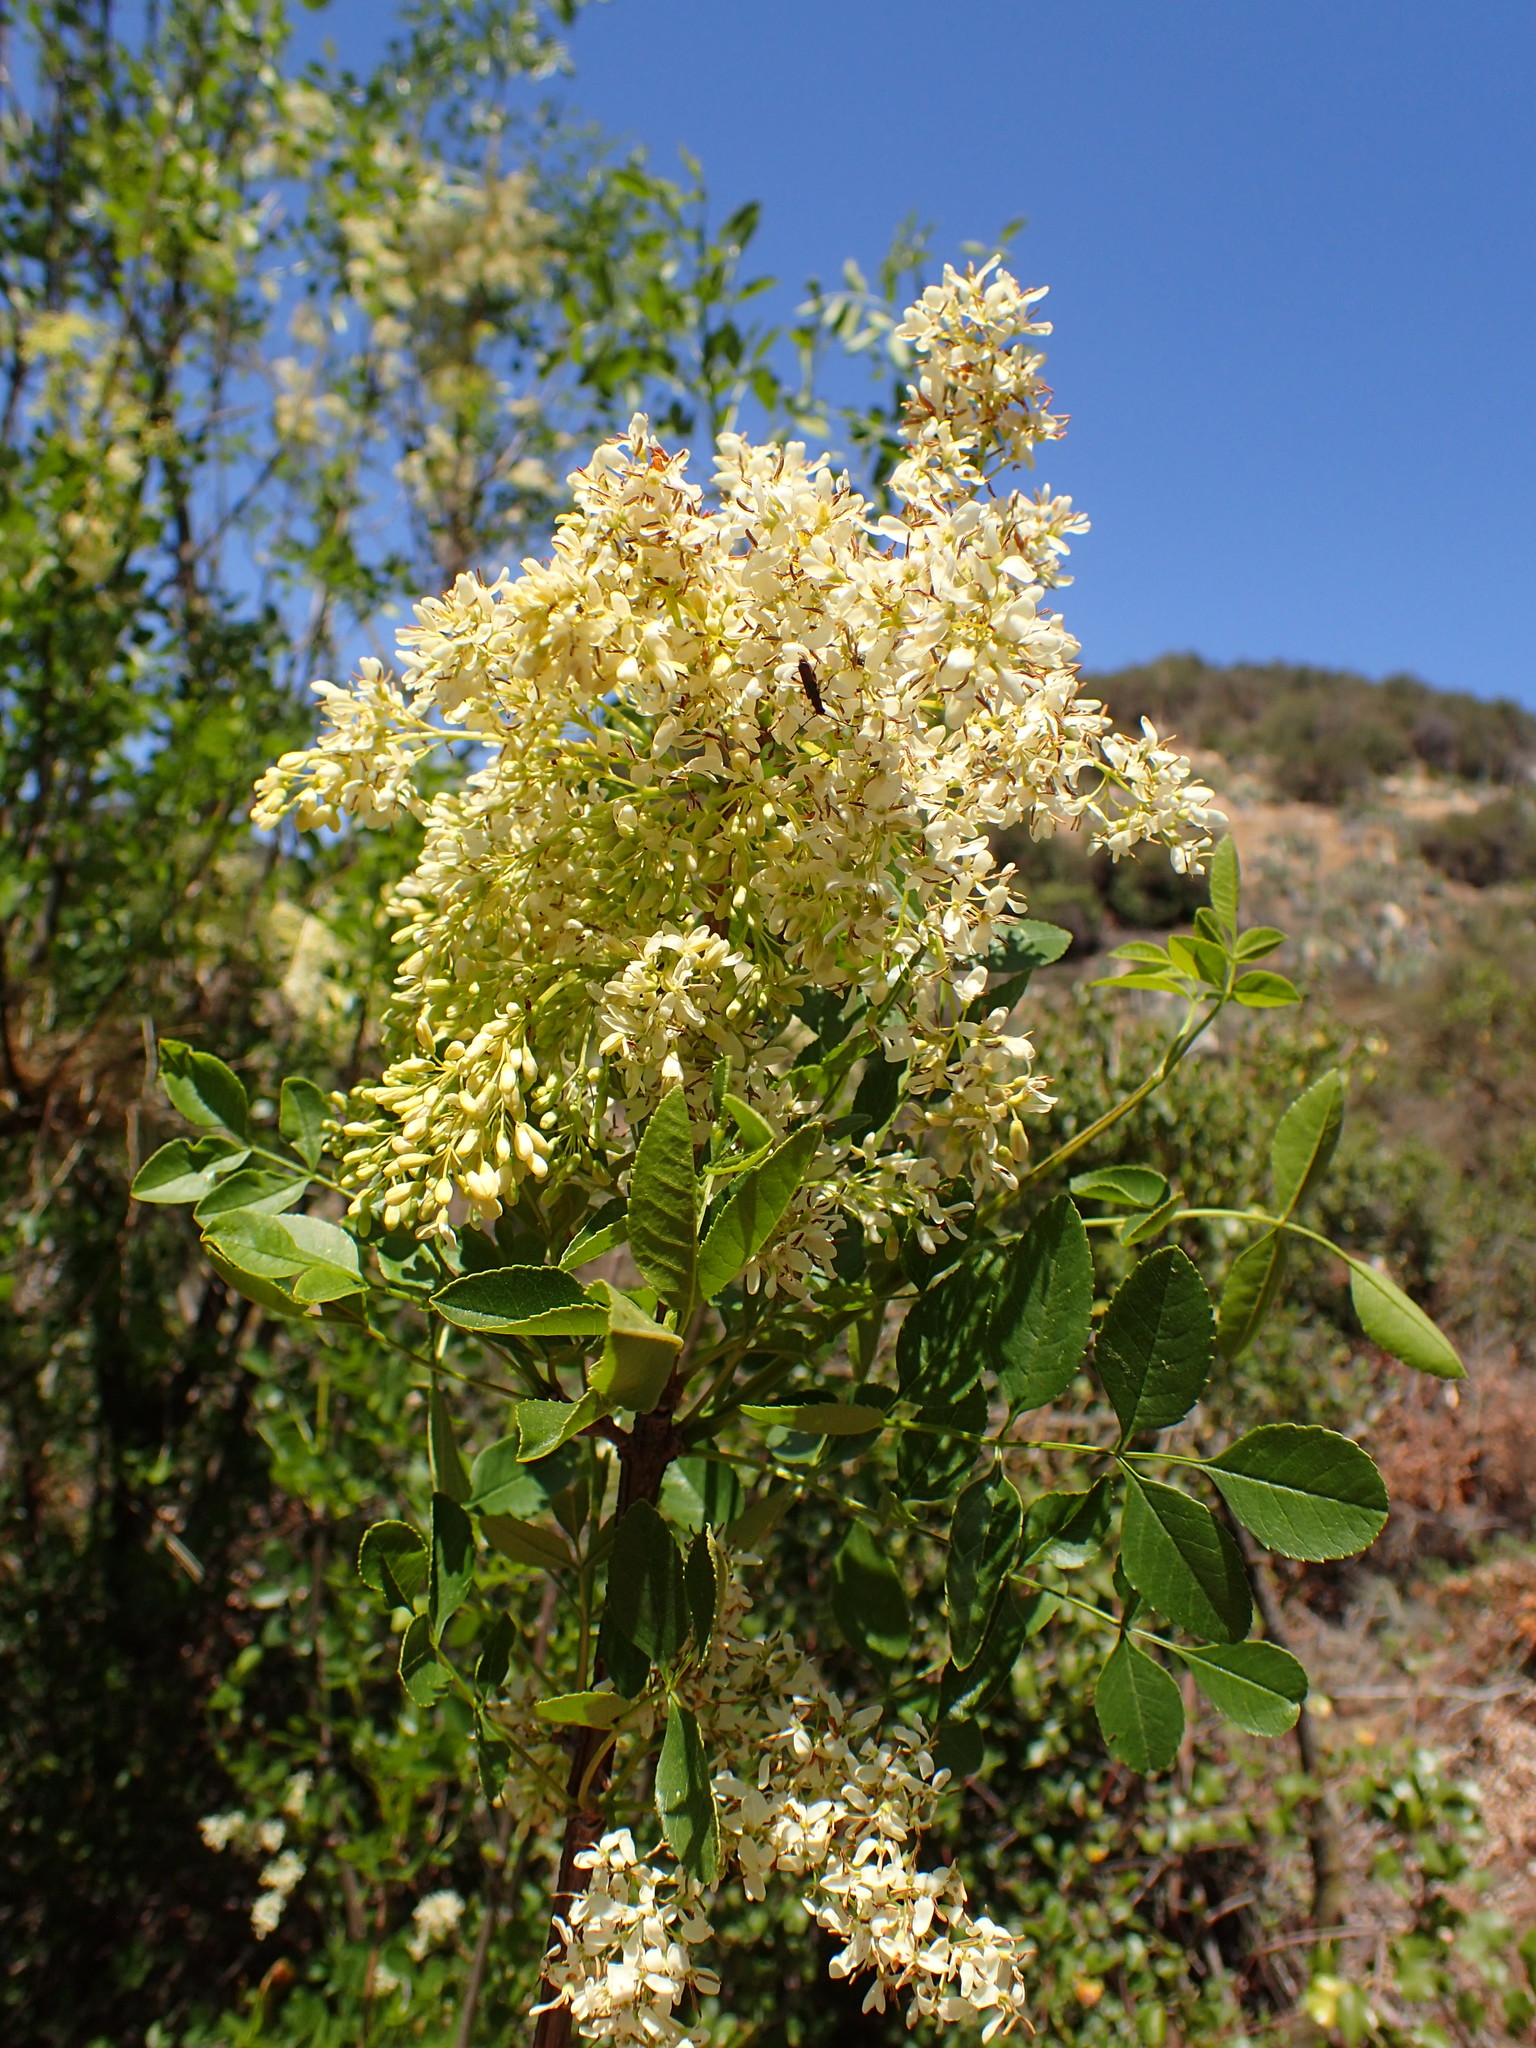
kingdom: Plantae
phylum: Tracheophyta
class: Magnoliopsida
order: Lamiales
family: Oleaceae
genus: Fraxinus
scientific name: Fraxinus dipetala
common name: California ash
